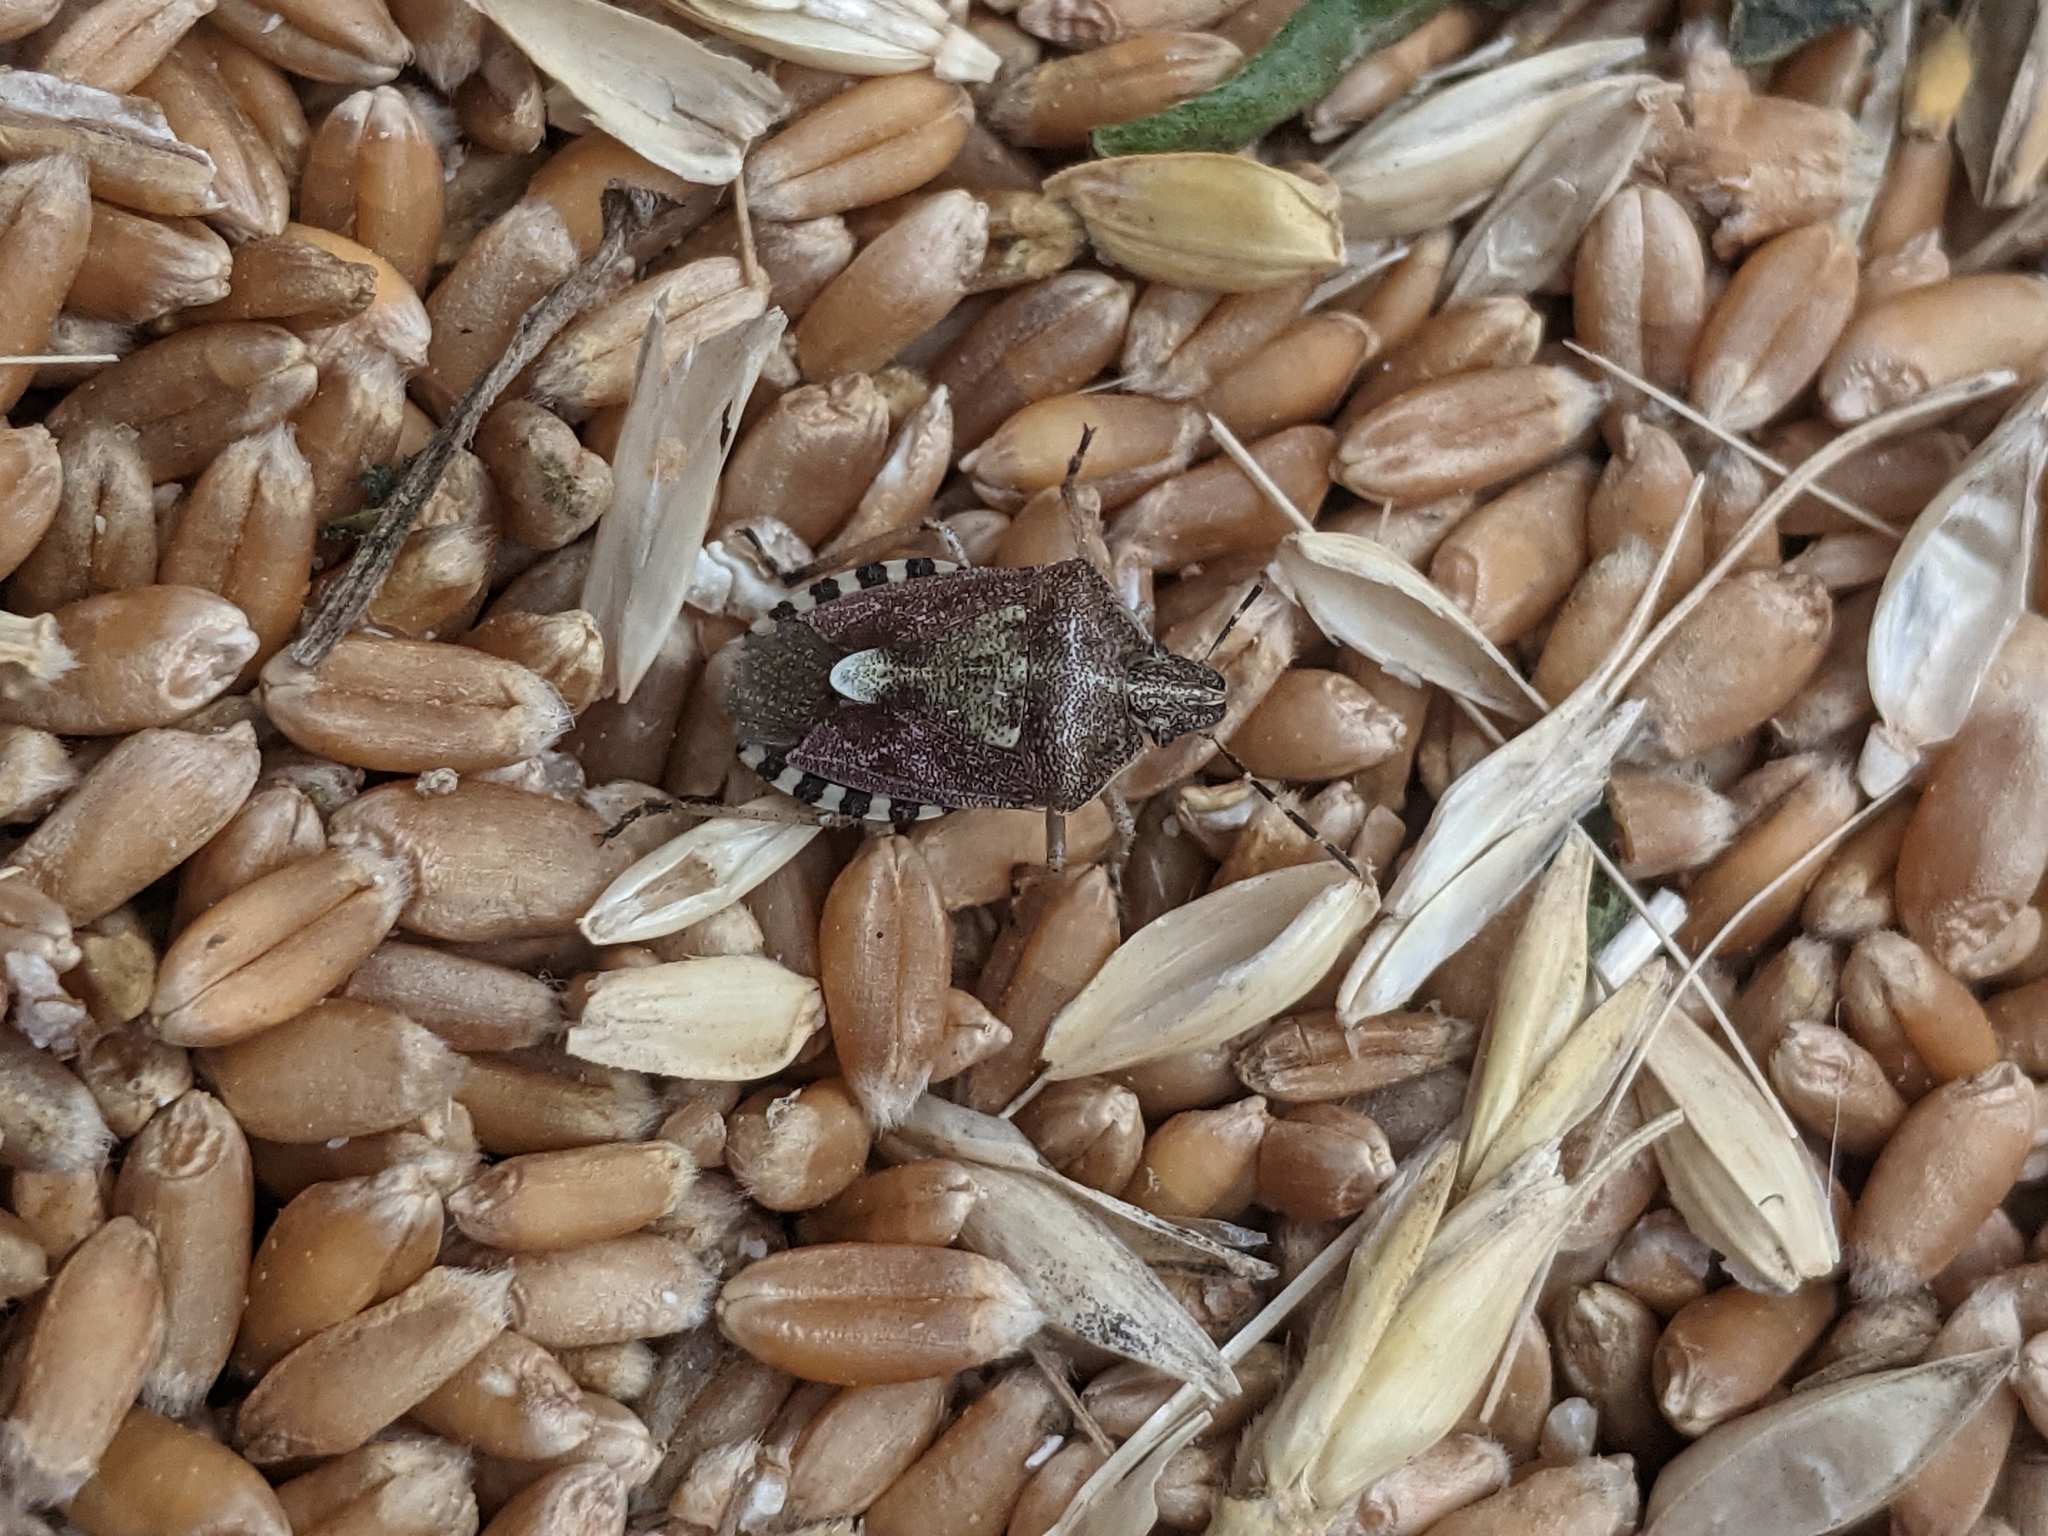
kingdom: Animalia
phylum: Arthropoda
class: Insecta
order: Hemiptera
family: Pentatomidae
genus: Dolycoris
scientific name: Dolycoris baccarum
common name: Sloe bug
